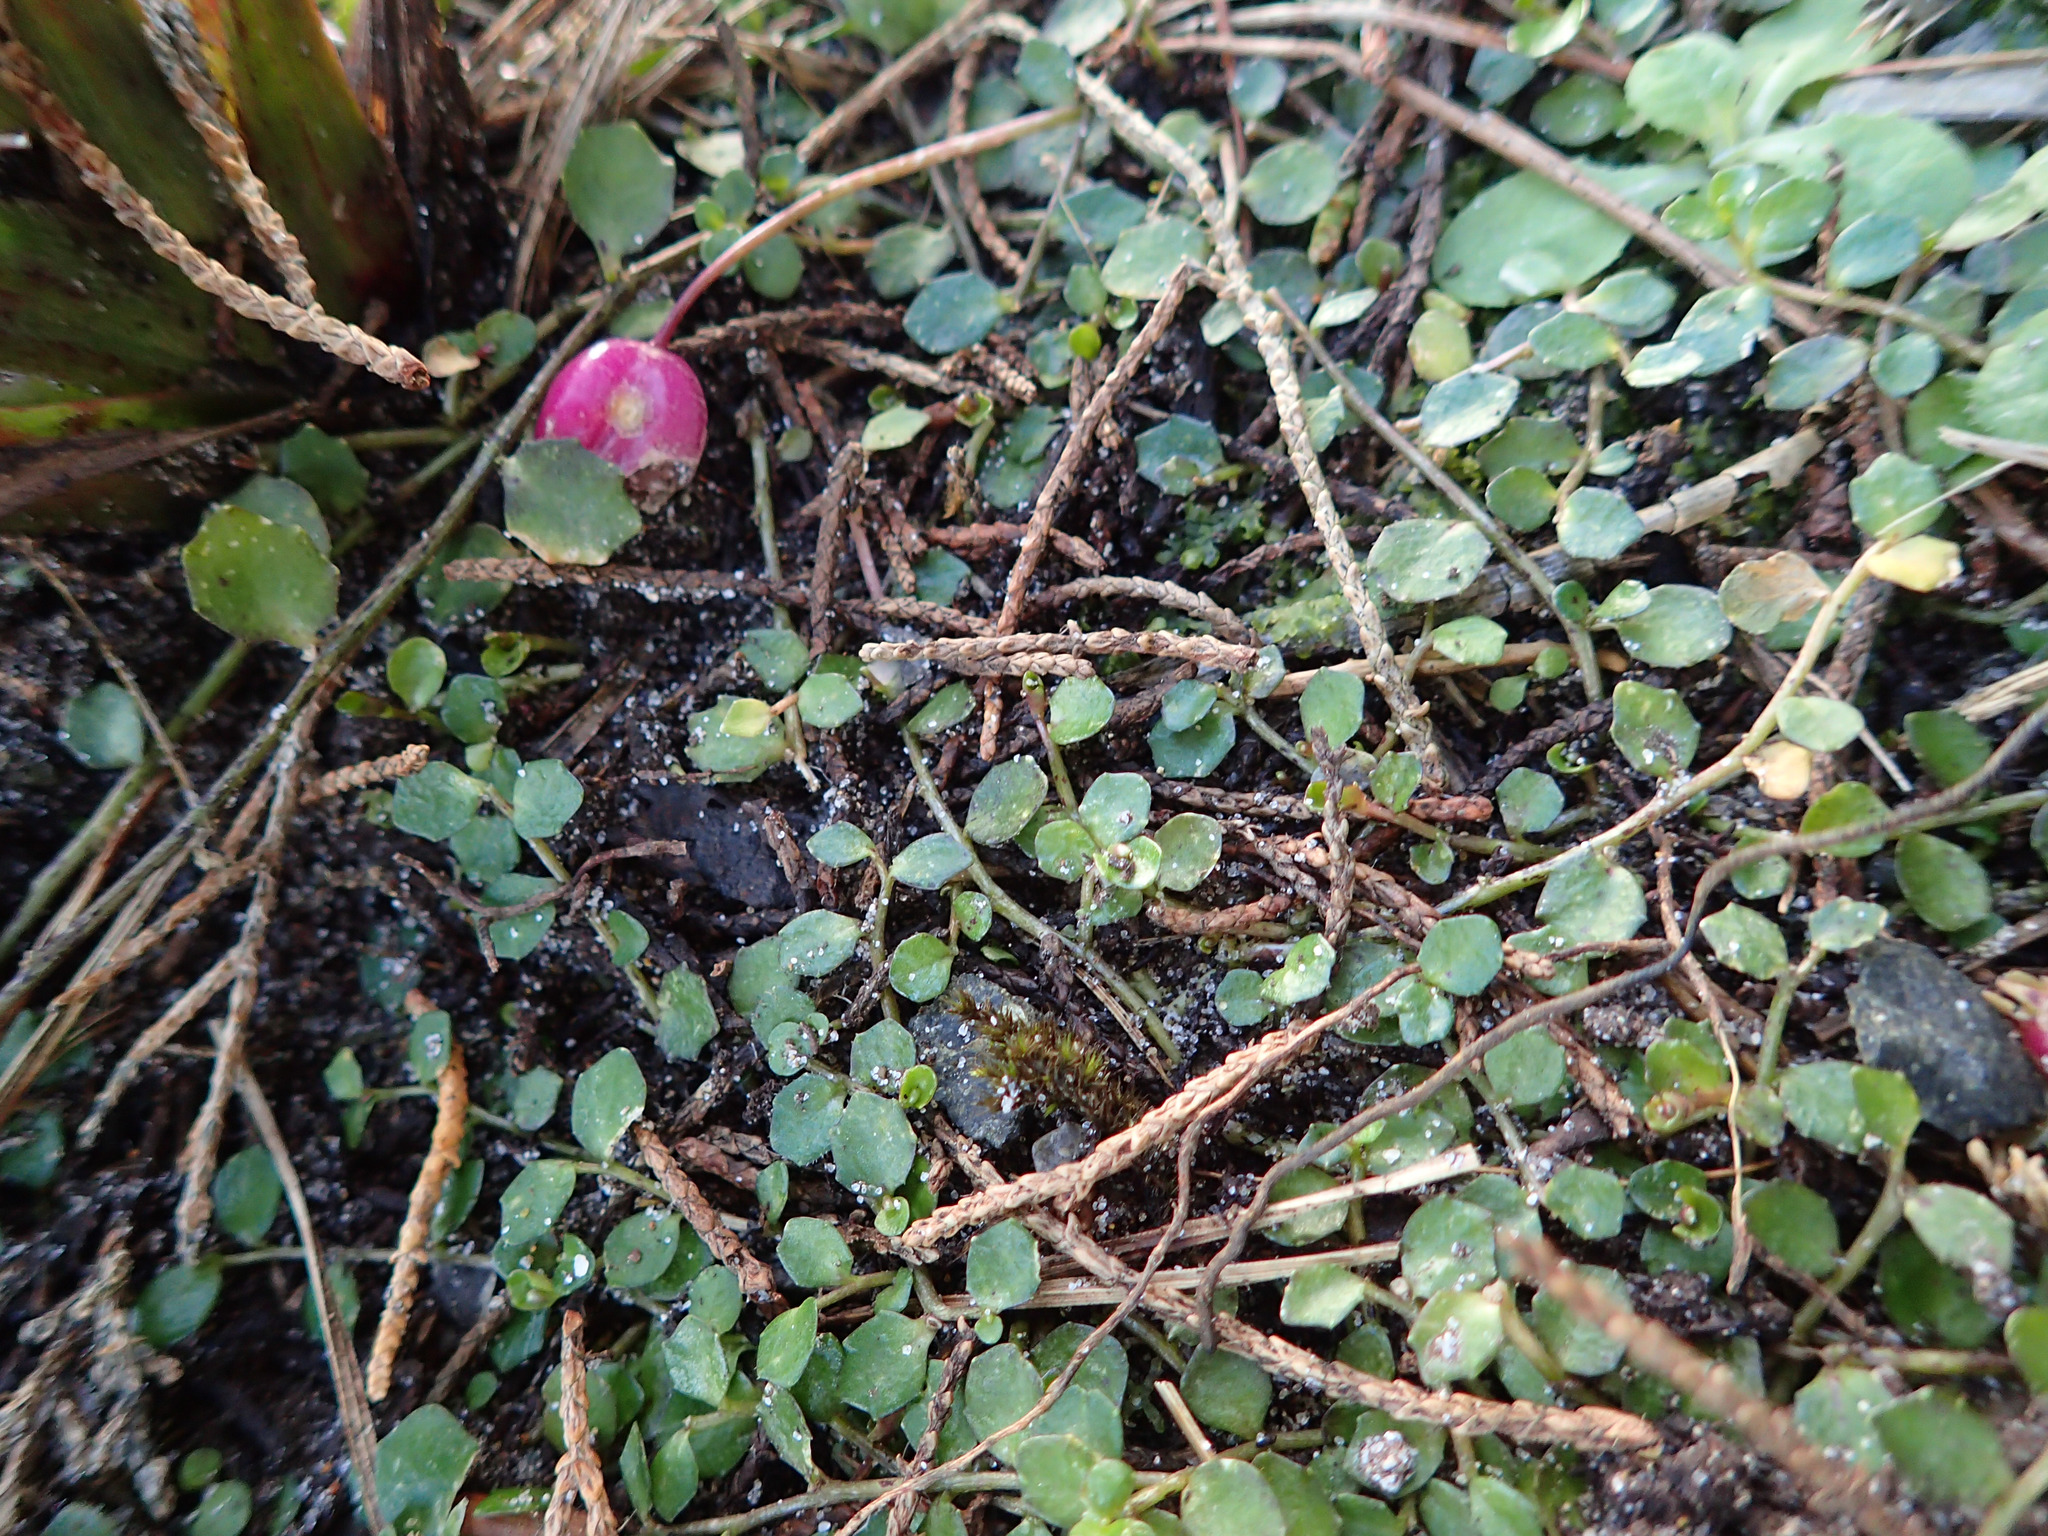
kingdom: Plantae
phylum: Tracheophyta
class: Magnoliopsida
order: Asterales
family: Campanulaceae
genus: Lobelia
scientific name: Lobelia angulata
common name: Lawn lobelia
